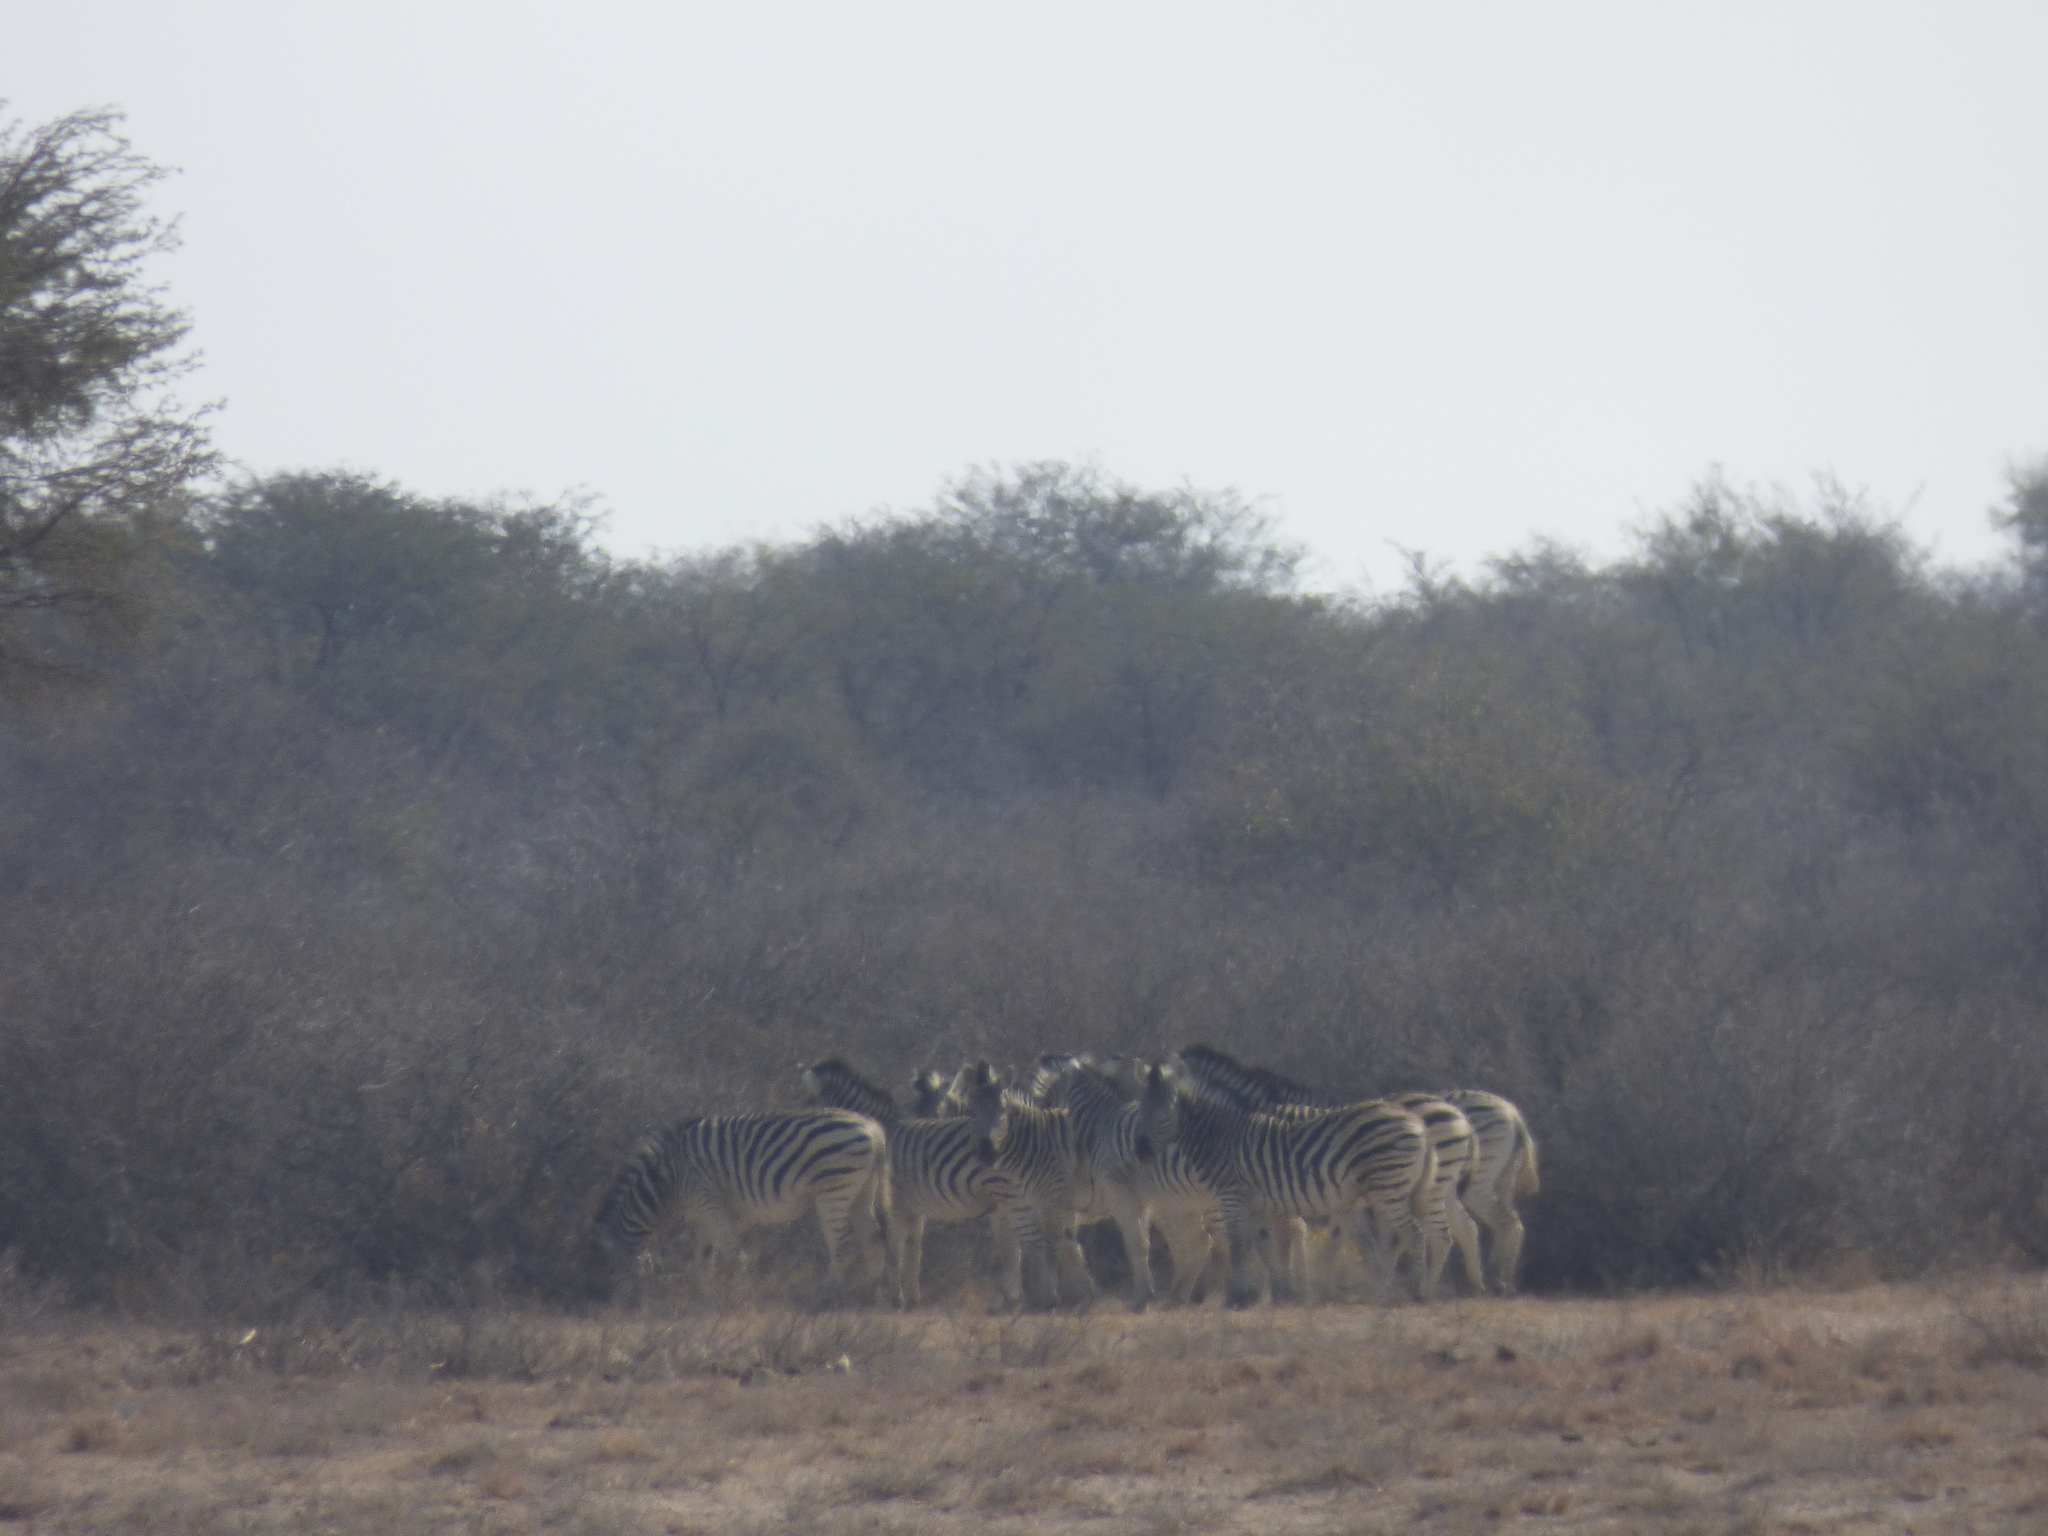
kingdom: Animalia
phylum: Chordata
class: Mammalia
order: Perissodactyla
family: Equidae
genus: Equus
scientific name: Equus quagga
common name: Plains zebra
